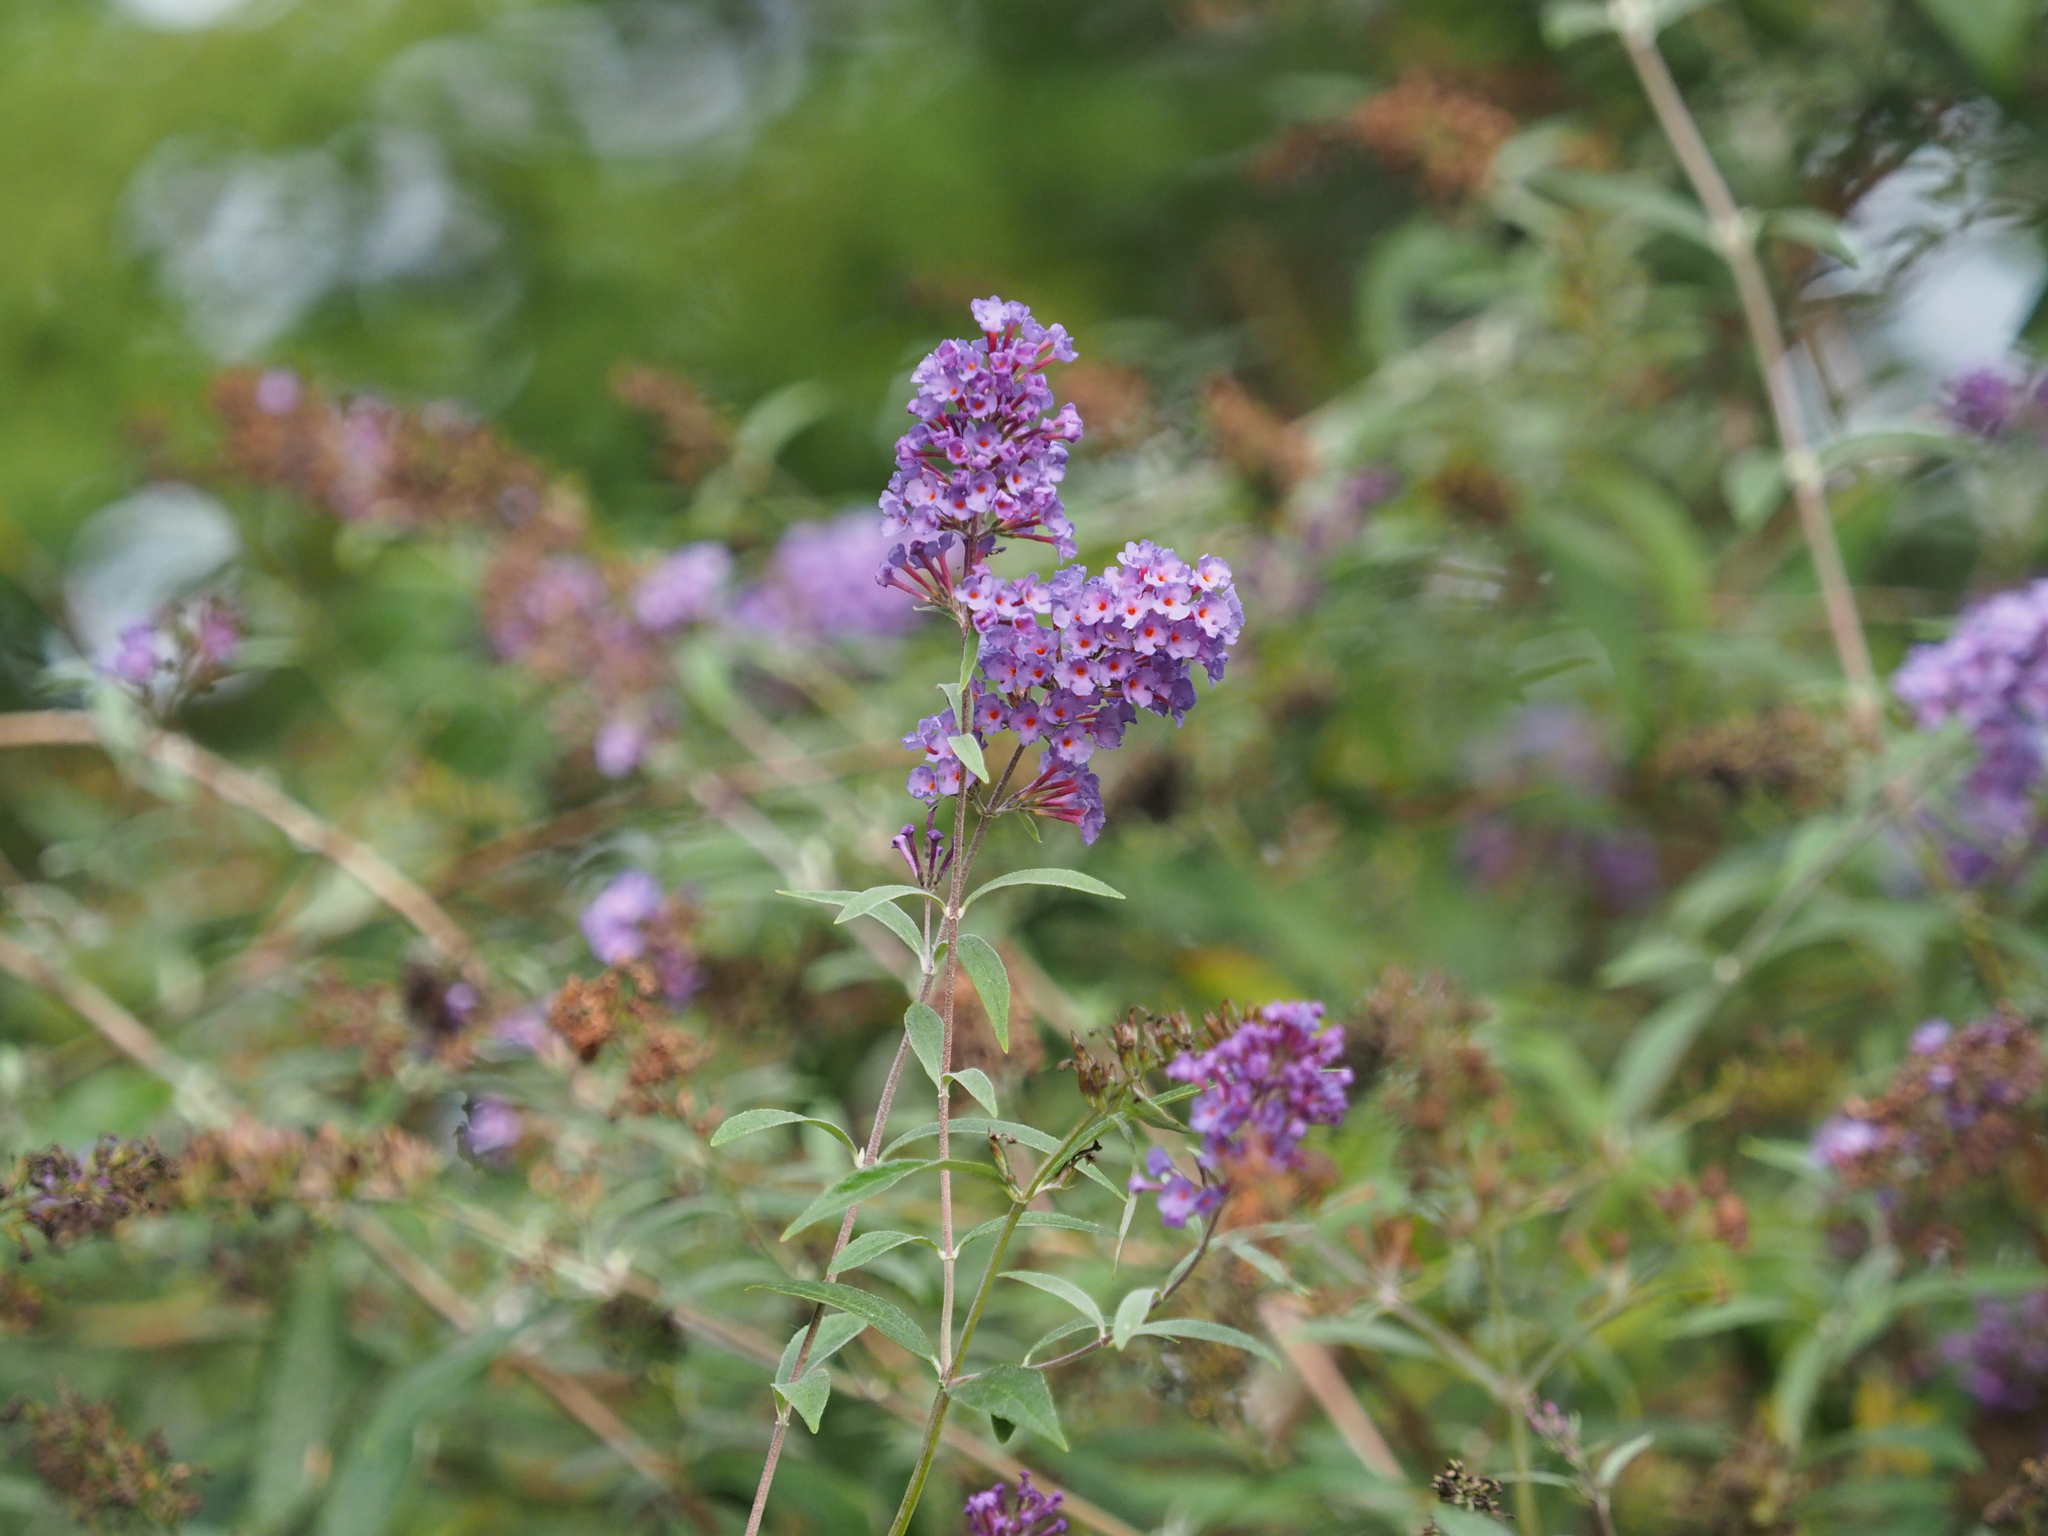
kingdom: Plantae
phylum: Tracheophyta
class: Magnoliopsida
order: Lamiales
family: Scrophulariaceae
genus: Buddleja
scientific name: Buddleja davidii
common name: Butterfly-bush
